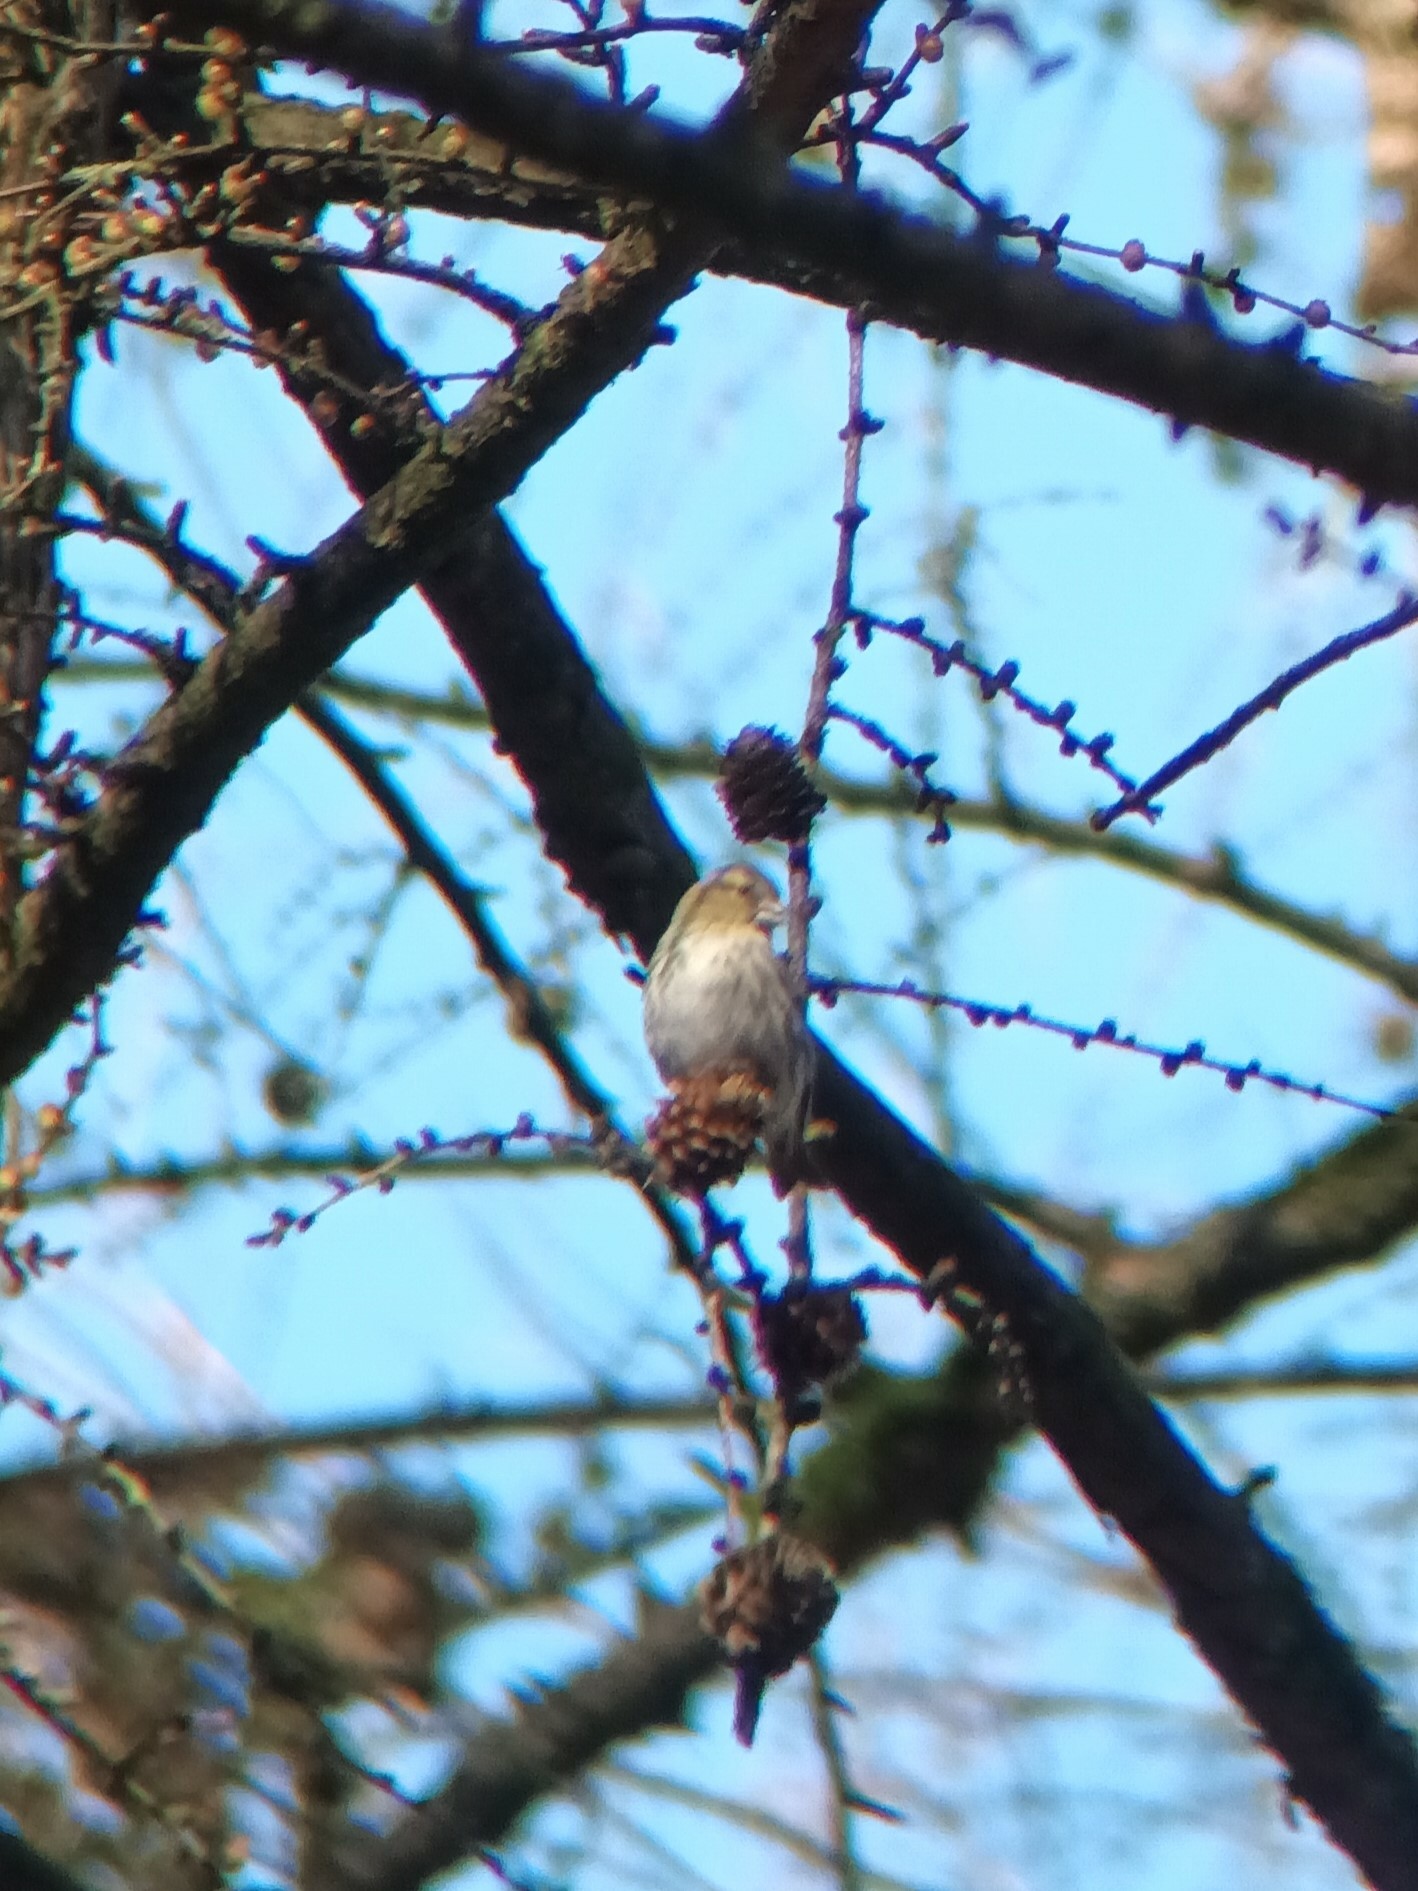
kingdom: Animalia
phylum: Chordata
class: Aves
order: Passeriformes
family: Fringillidae
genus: Spinus
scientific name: Spinus spinus
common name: Eurasian siskin
